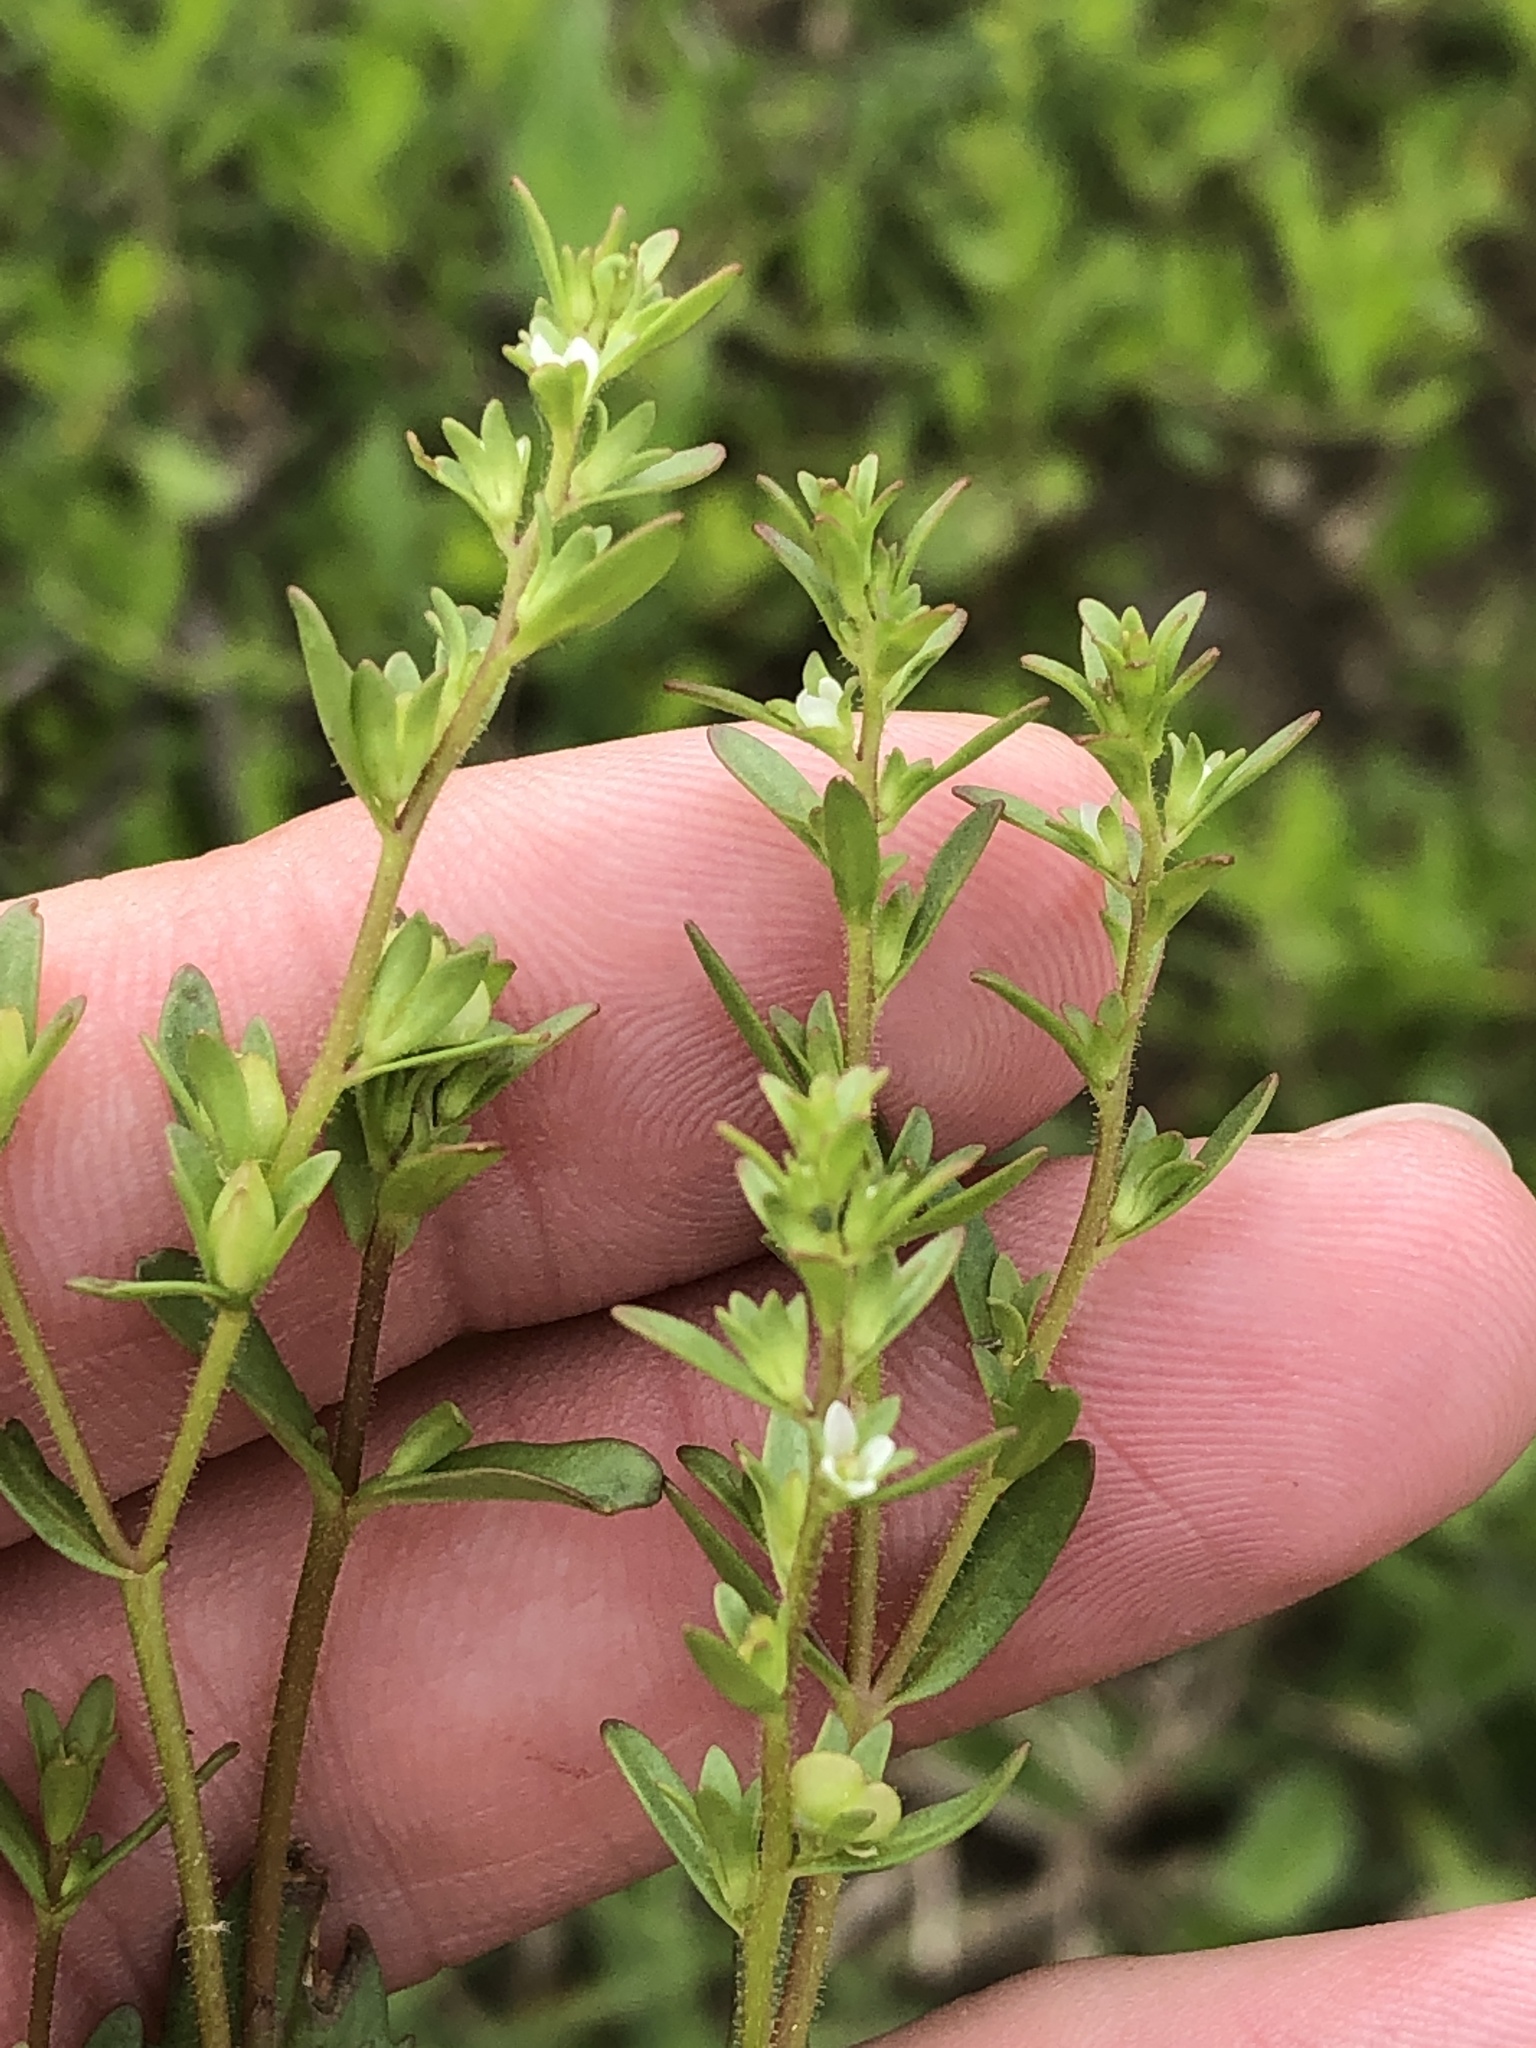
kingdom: Plantae
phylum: Tracheophyta
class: Magnoliopsida
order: Lamiales
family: Plantaginaceae
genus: Veronica
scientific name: Veronica peregrina
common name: Neckweed
